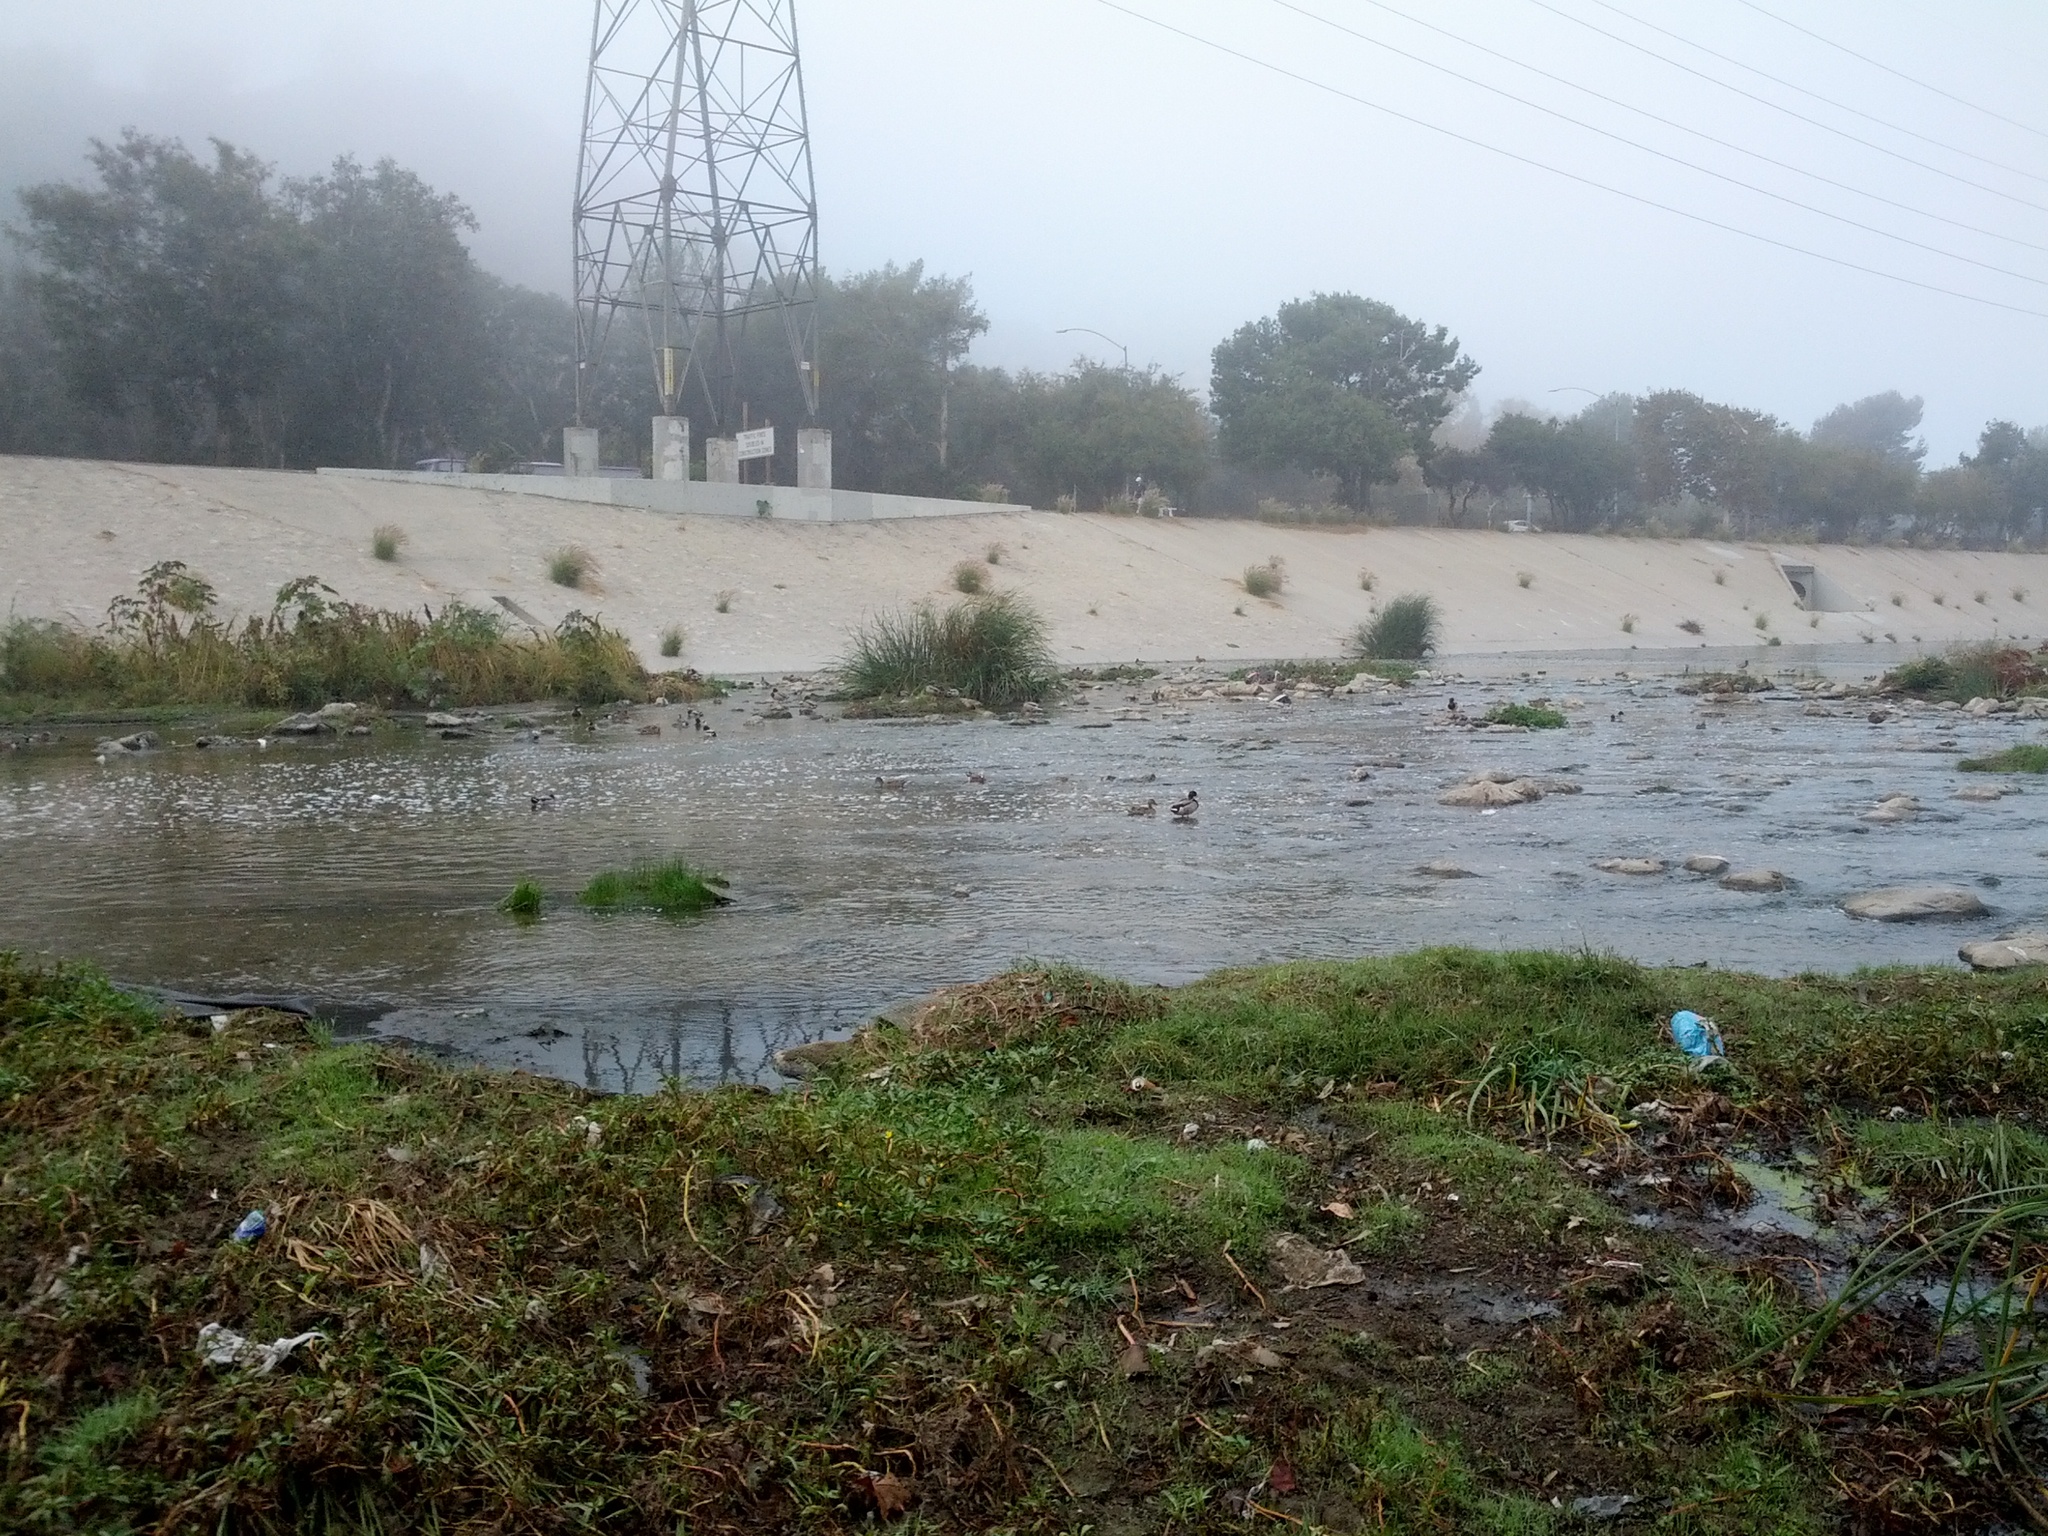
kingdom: Animalia
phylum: Chordata
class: Aves
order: Anseriformes
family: Anatidae
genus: Mareca
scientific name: Mareca americana
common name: American wigeon
